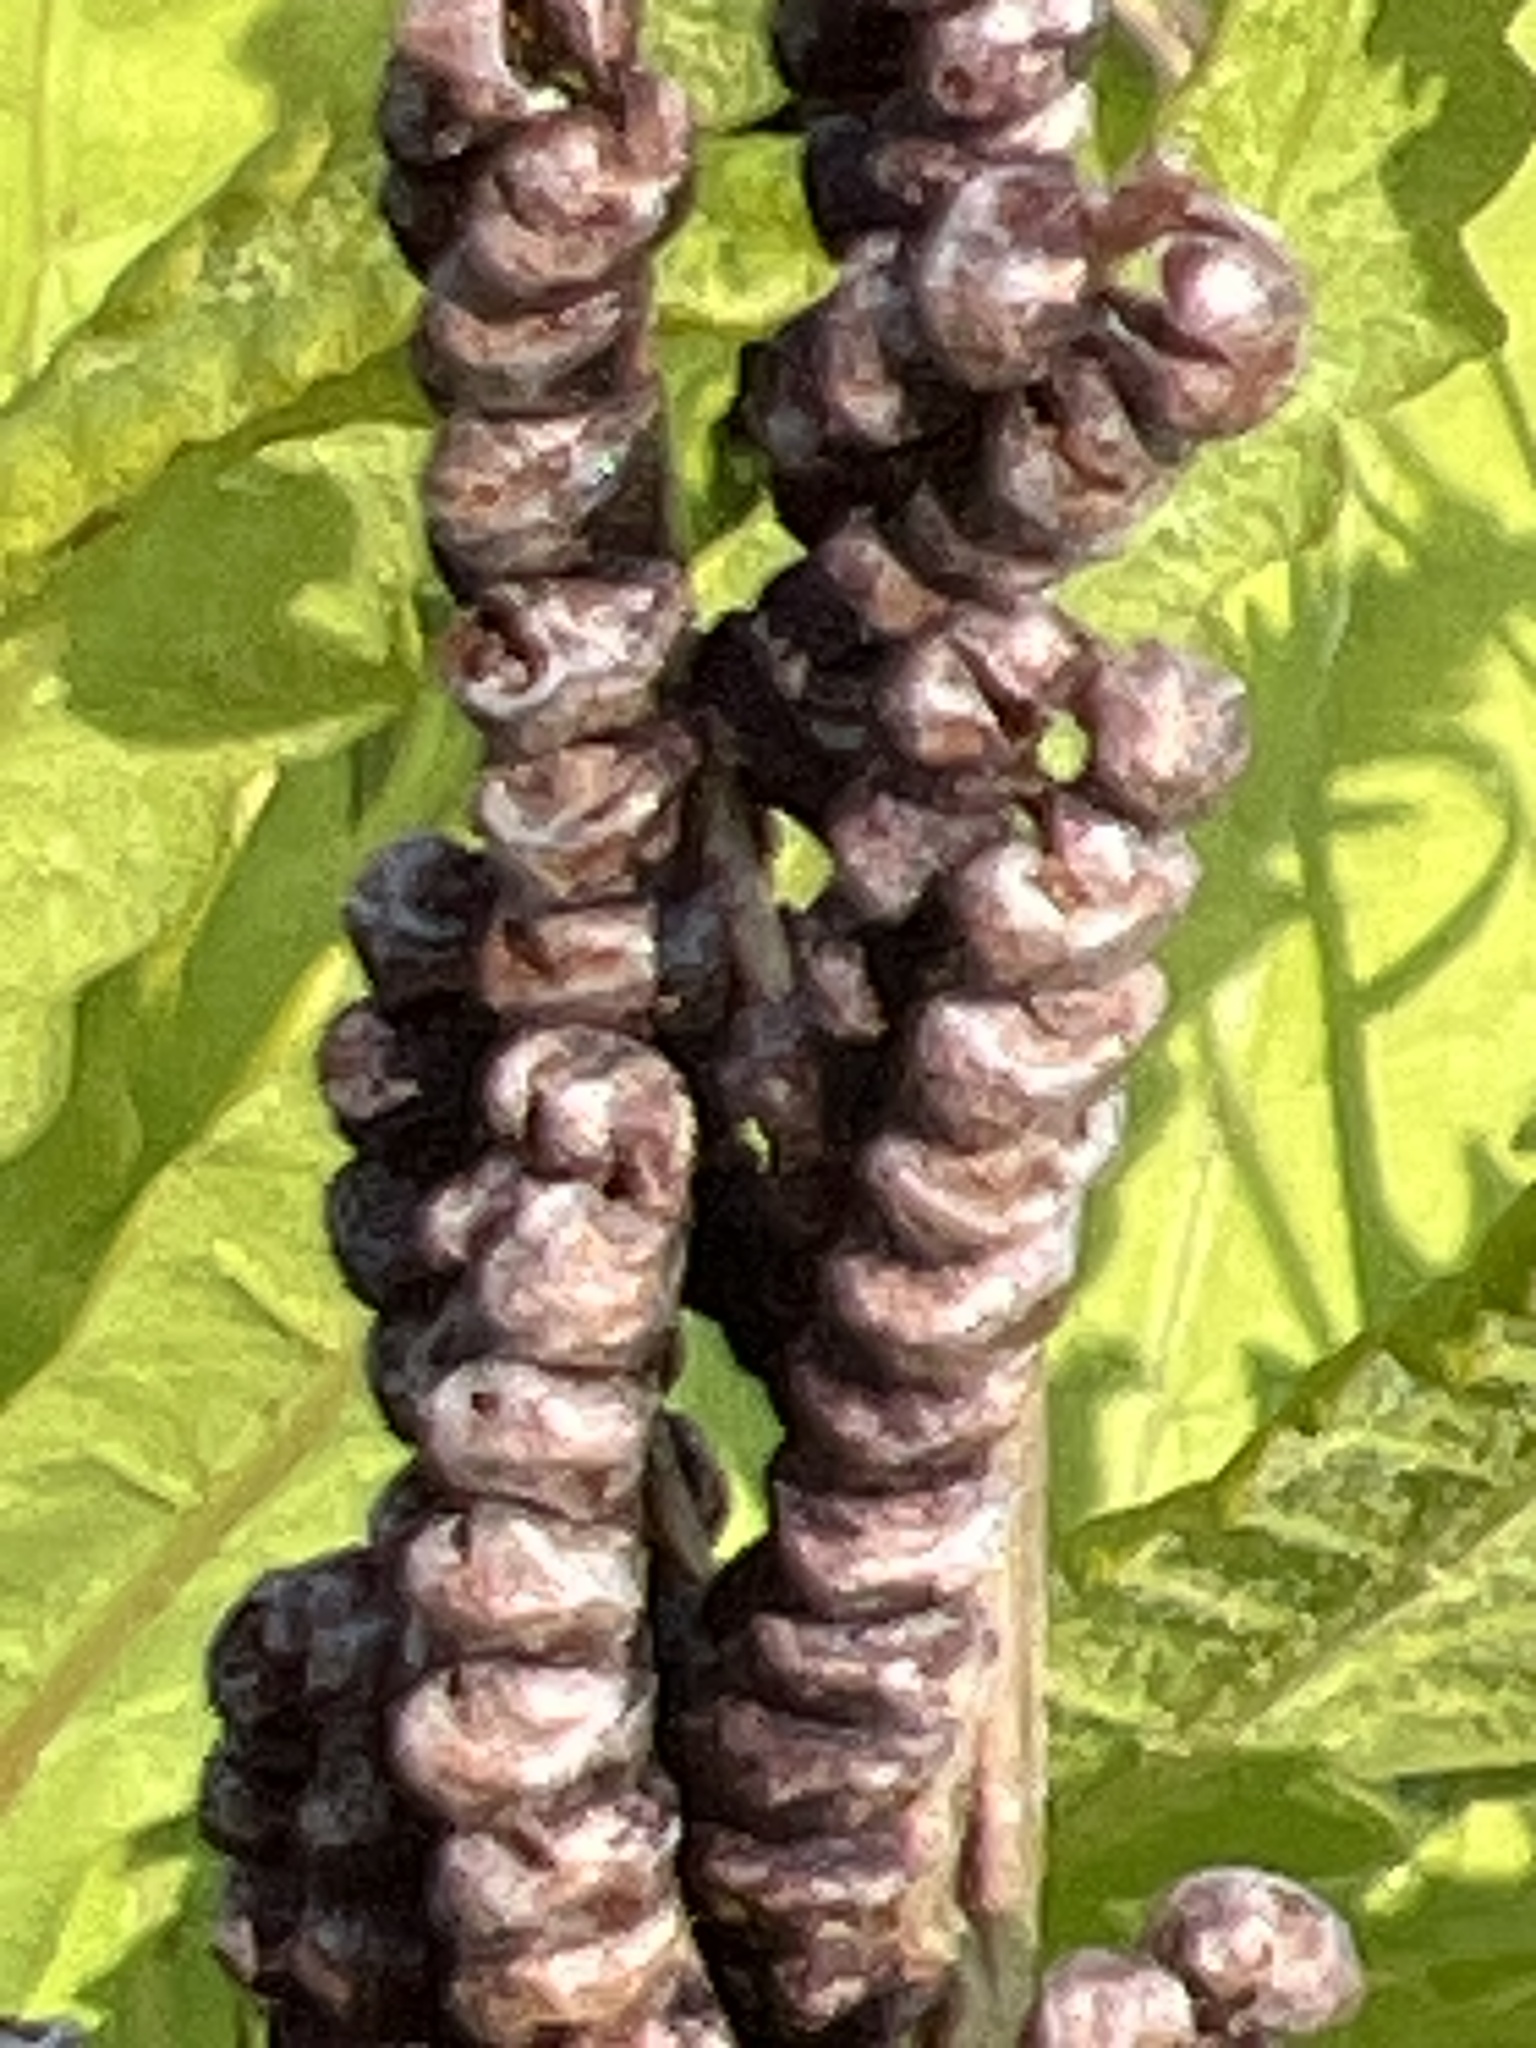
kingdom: Plantae
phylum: Tracheophyta
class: Polypodiopsida
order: Polypodiales
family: Onocleaceae
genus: Onoclea
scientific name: Onoclea sensibilis
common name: Sensitive fern
